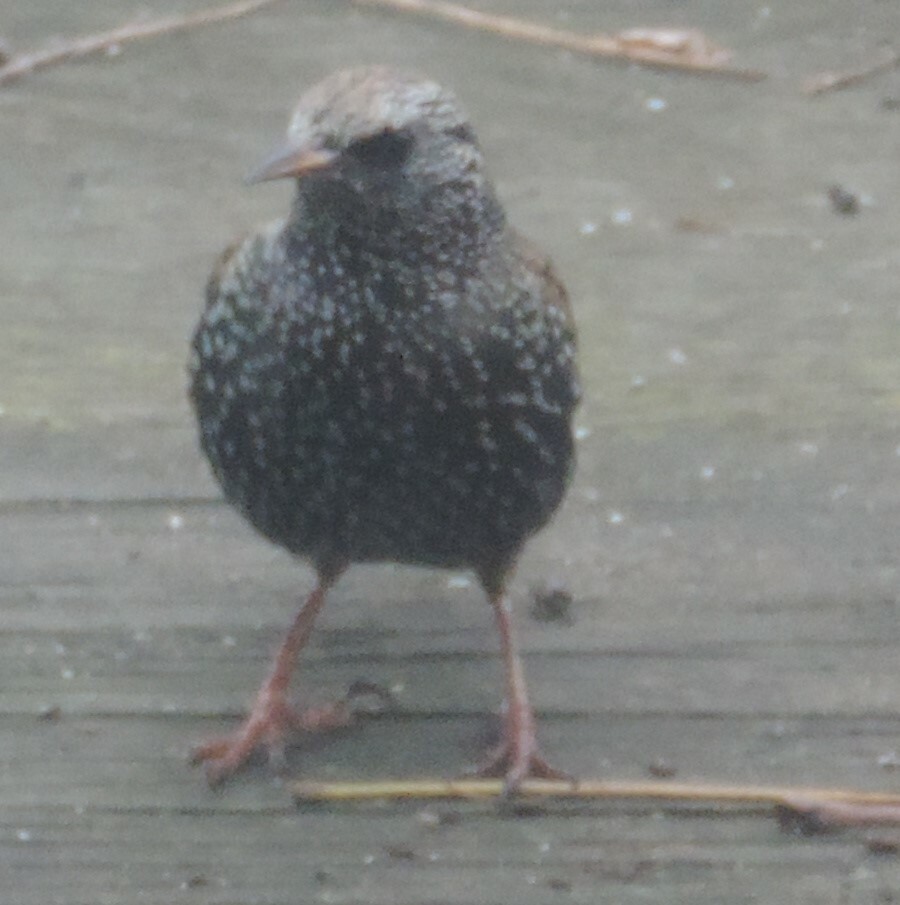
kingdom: Animalia
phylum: Chordata
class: Aves
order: Passeriformes
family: Sturnidae
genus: Sturnus
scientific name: Sturnus vulgaris
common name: Common starling
